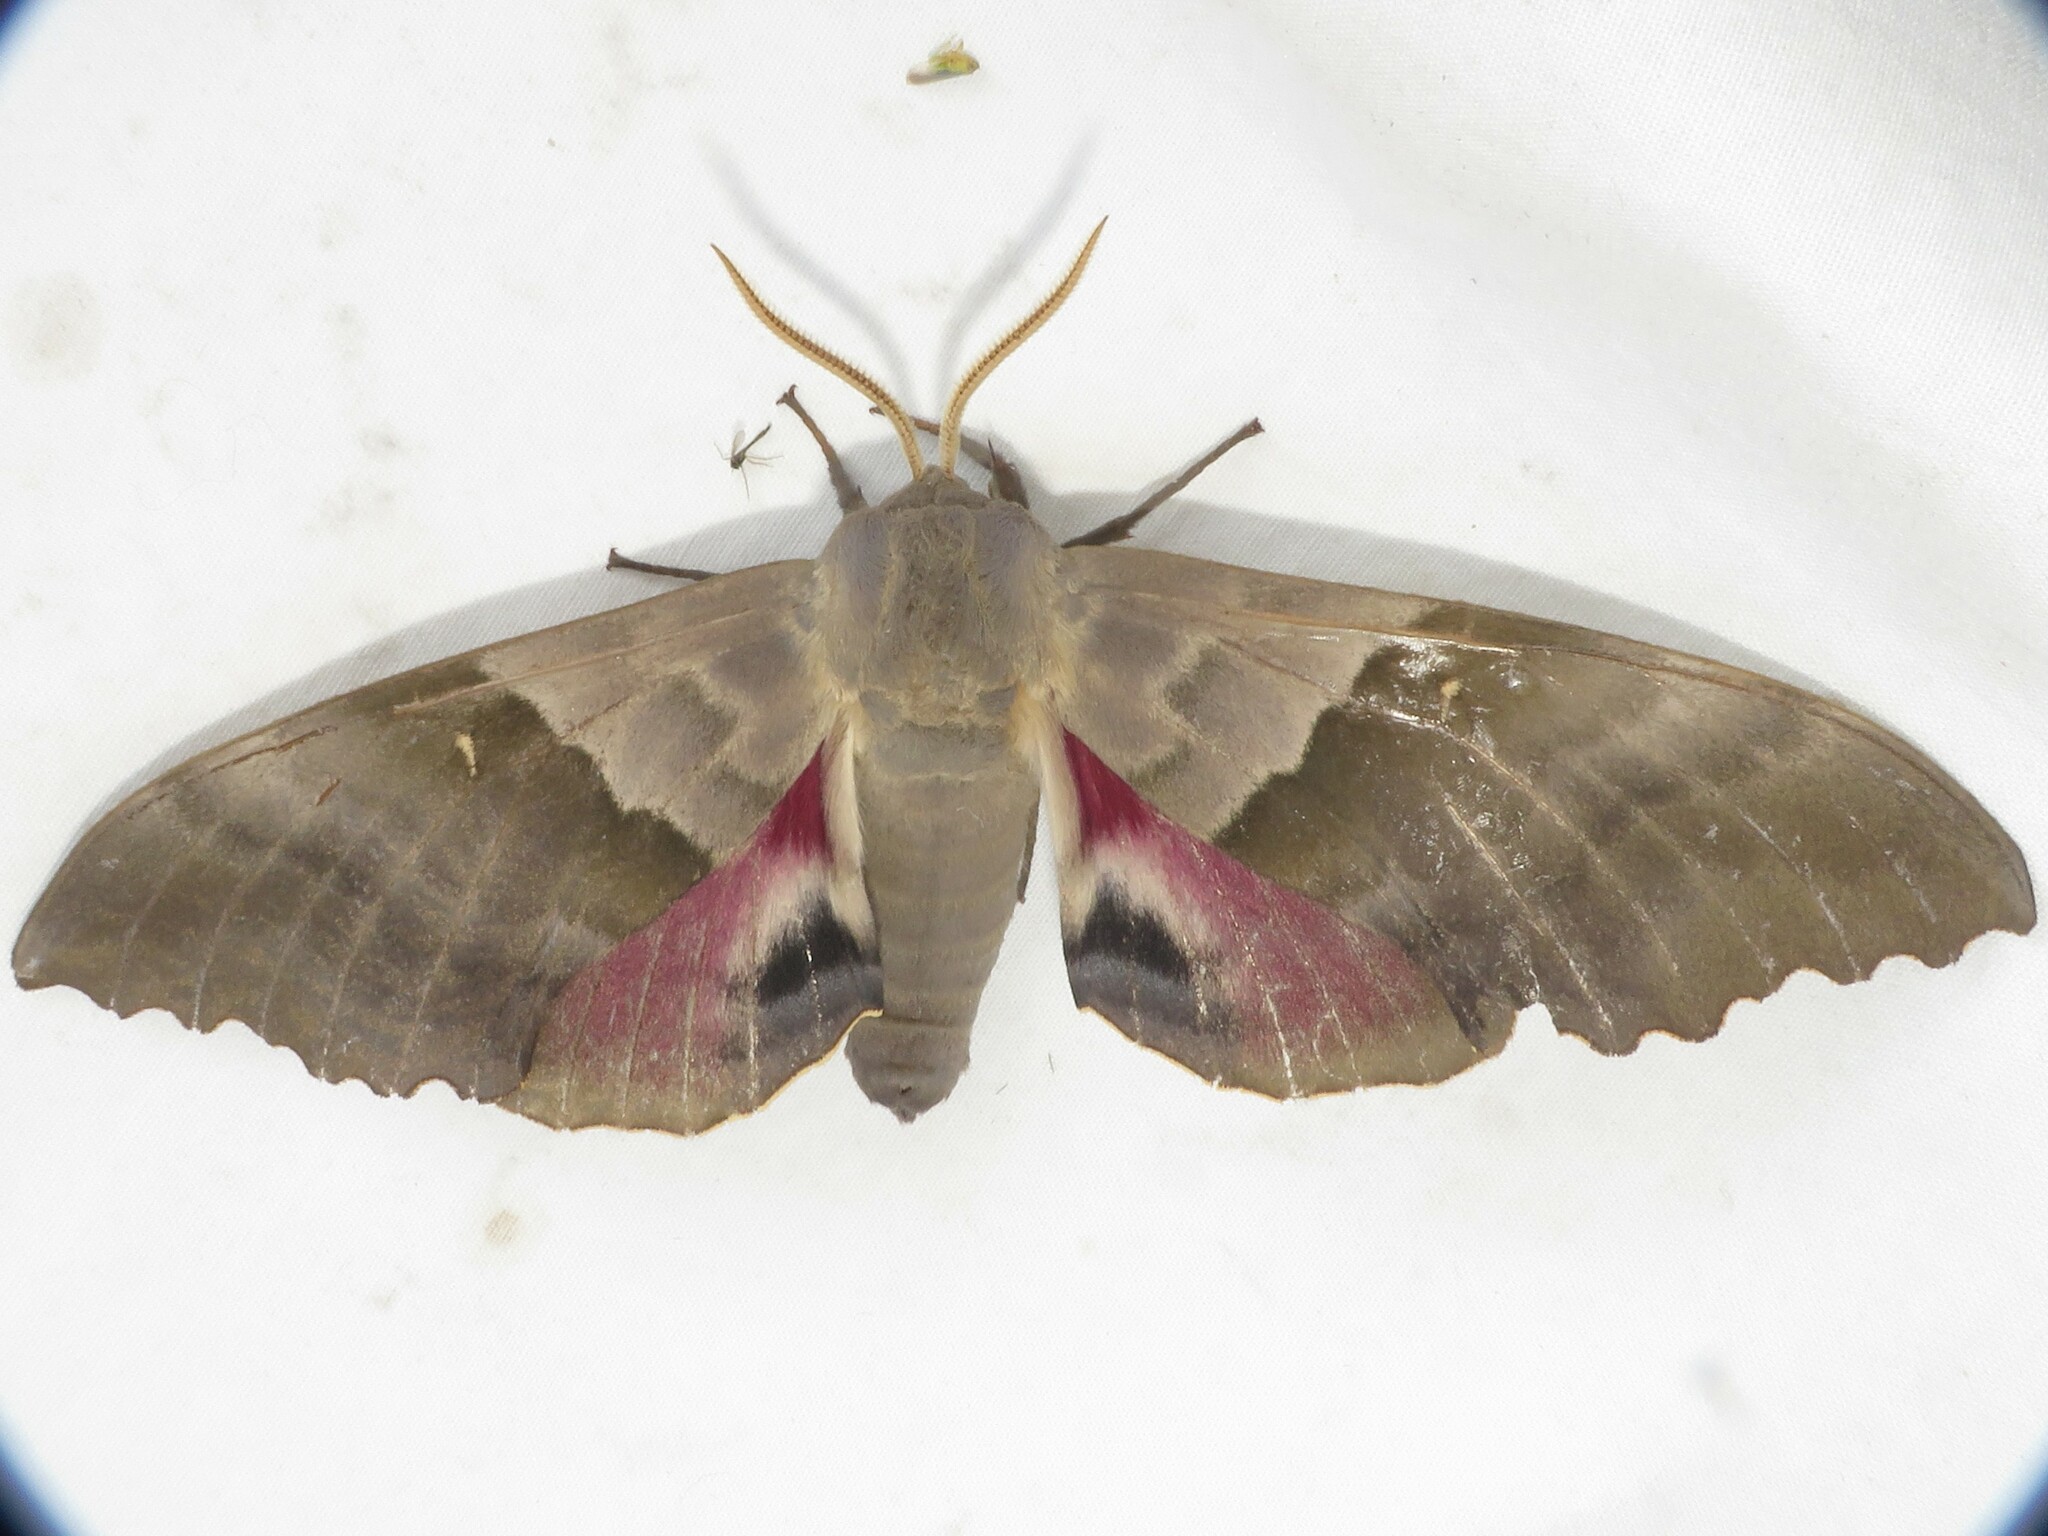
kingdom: Animalia
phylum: Arthropoda
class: Insecta
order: Lepidoptera
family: Sphingidae
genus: Pachysphinx
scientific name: Pachysphinx modesta
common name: Big poplar sphinx
